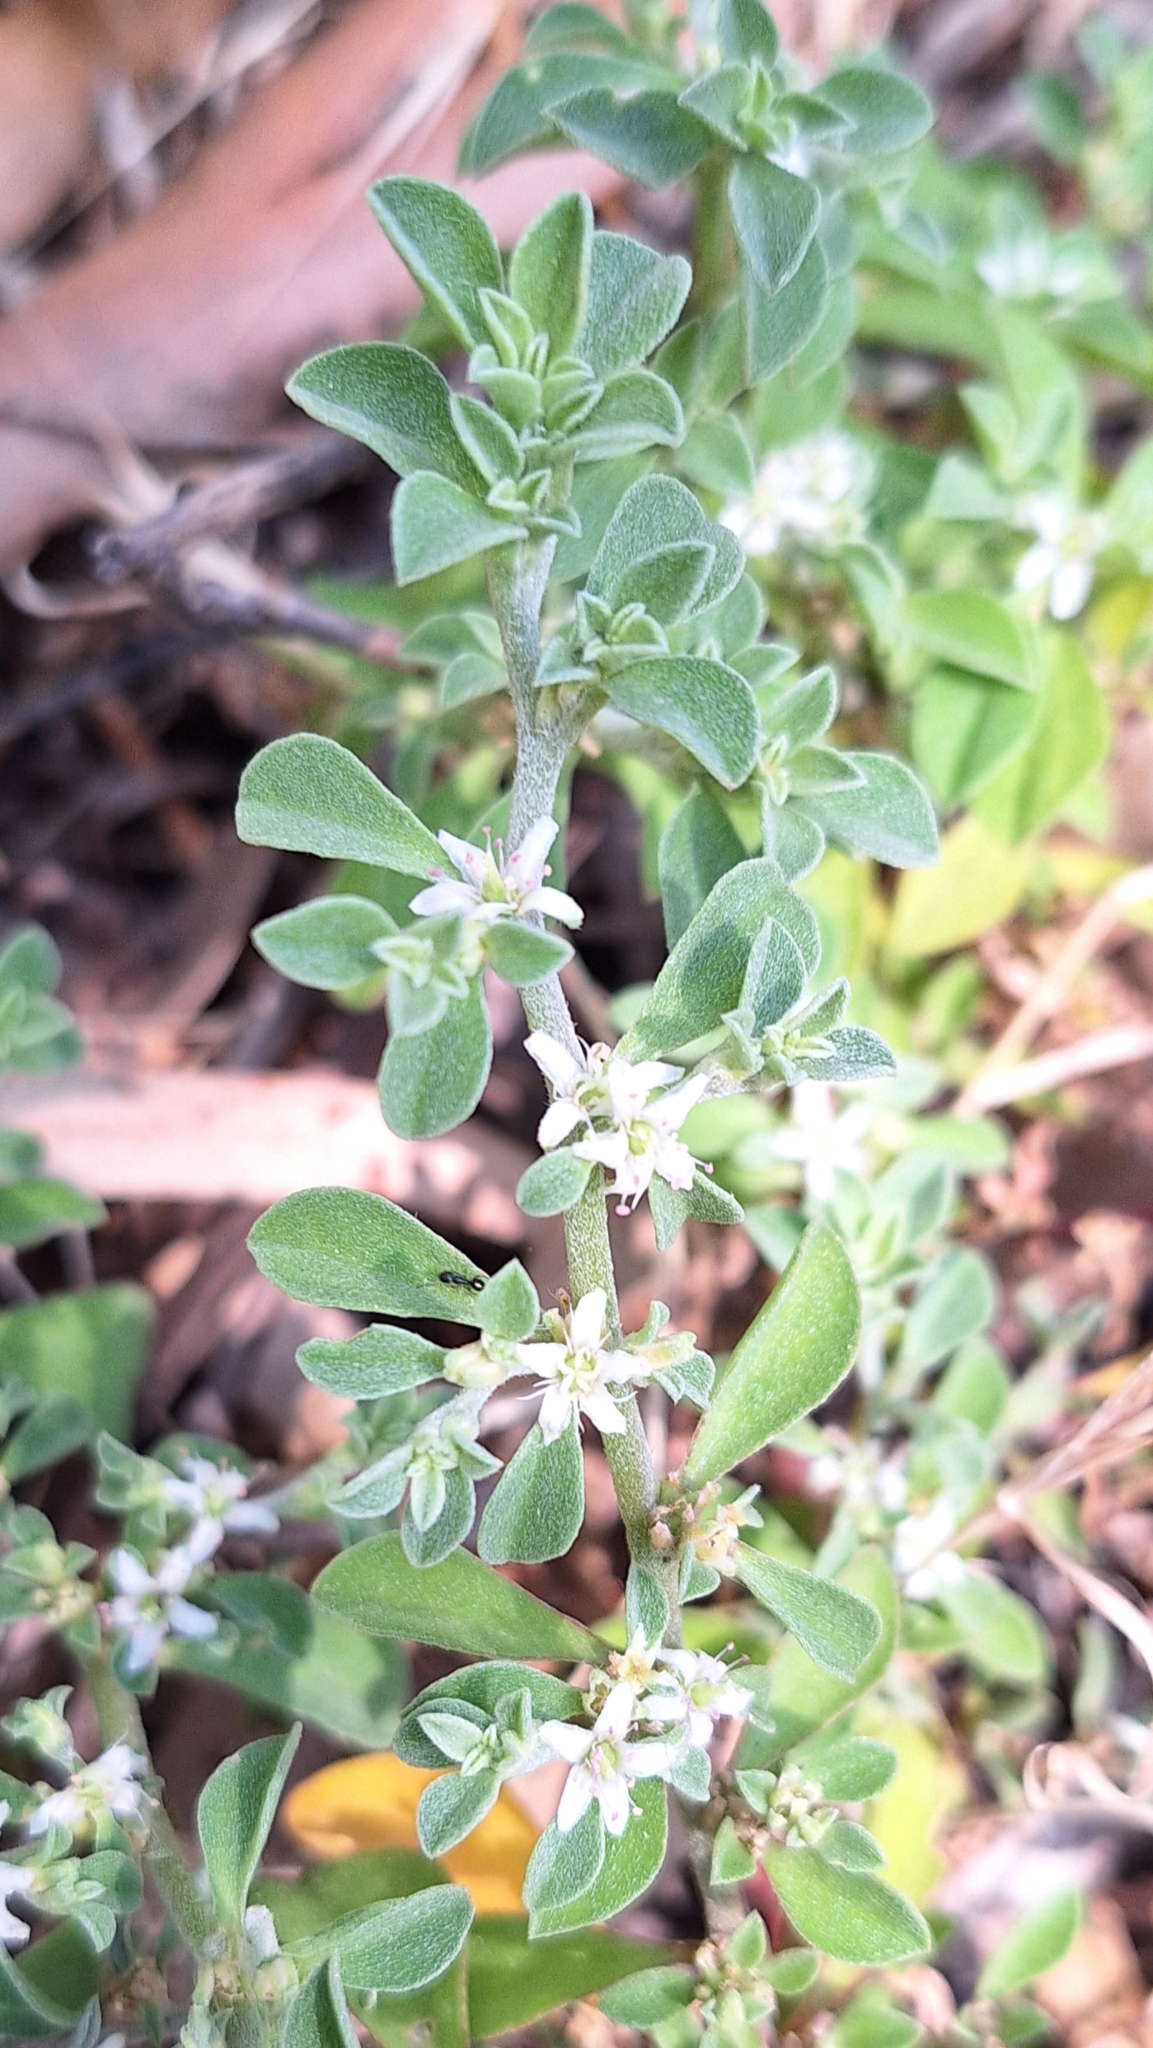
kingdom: Plantae
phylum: Tracheophyta
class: Magnoliopsida
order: Caryophyllales
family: Aizoaceae
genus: Aizoon
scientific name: Aizoon pubescens
